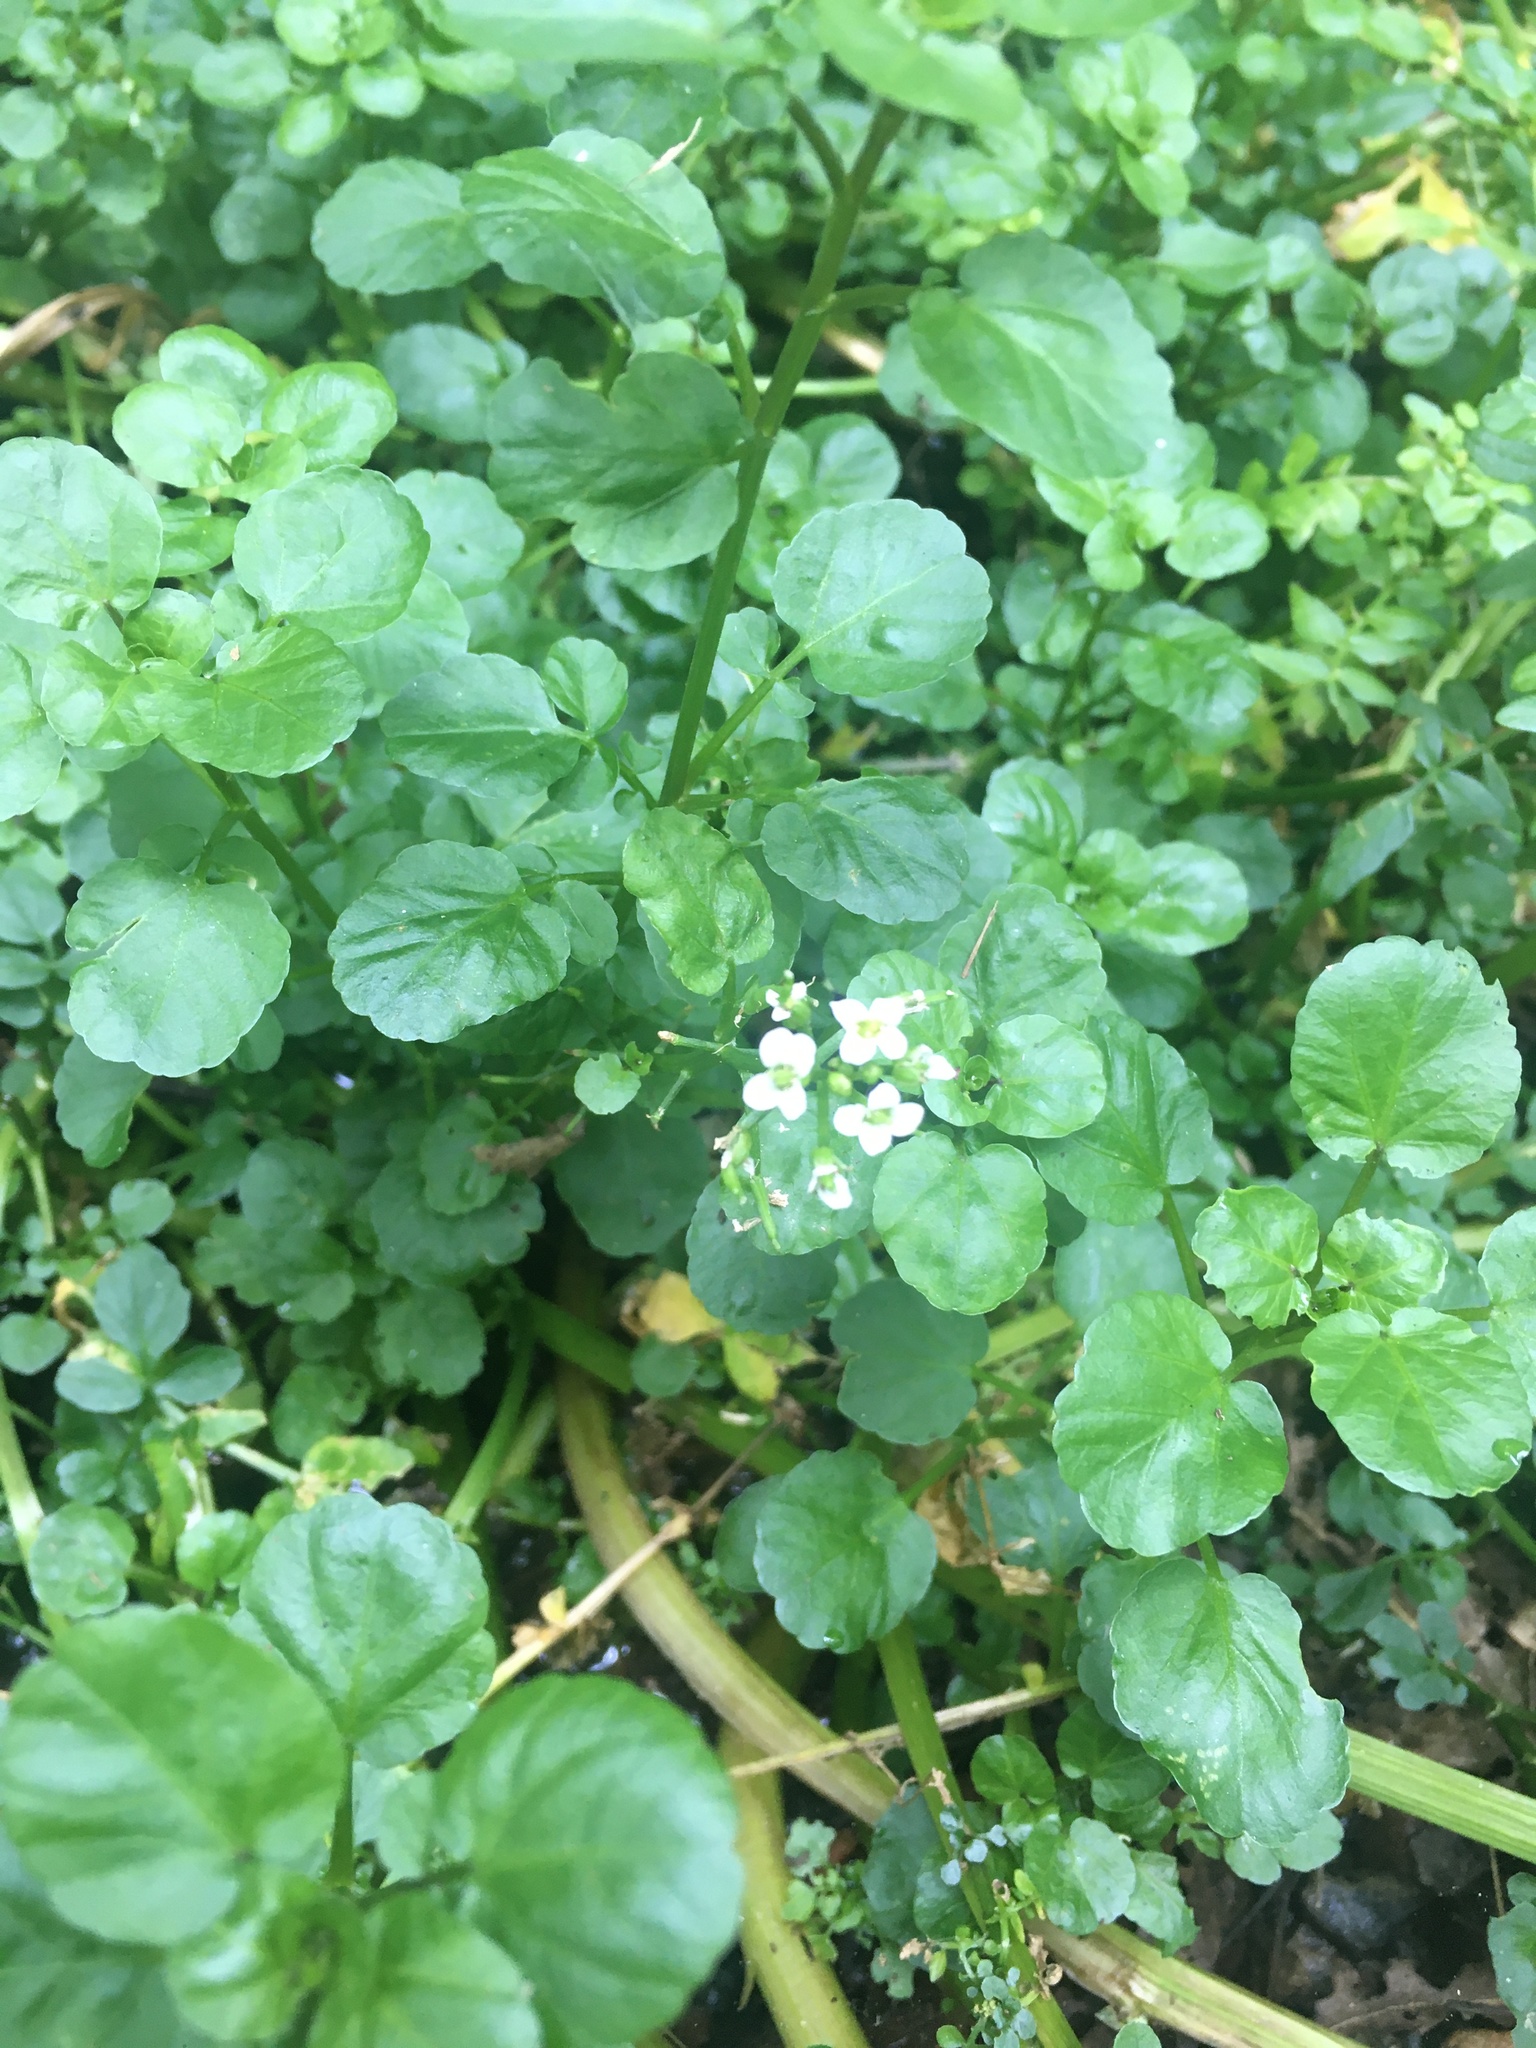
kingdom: Plantae
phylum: Tracheophyta
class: Magnoliopsida
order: Brassicales
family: Brassicaceae
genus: Nasturtium
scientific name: Nasturtium officinale
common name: Watercress
